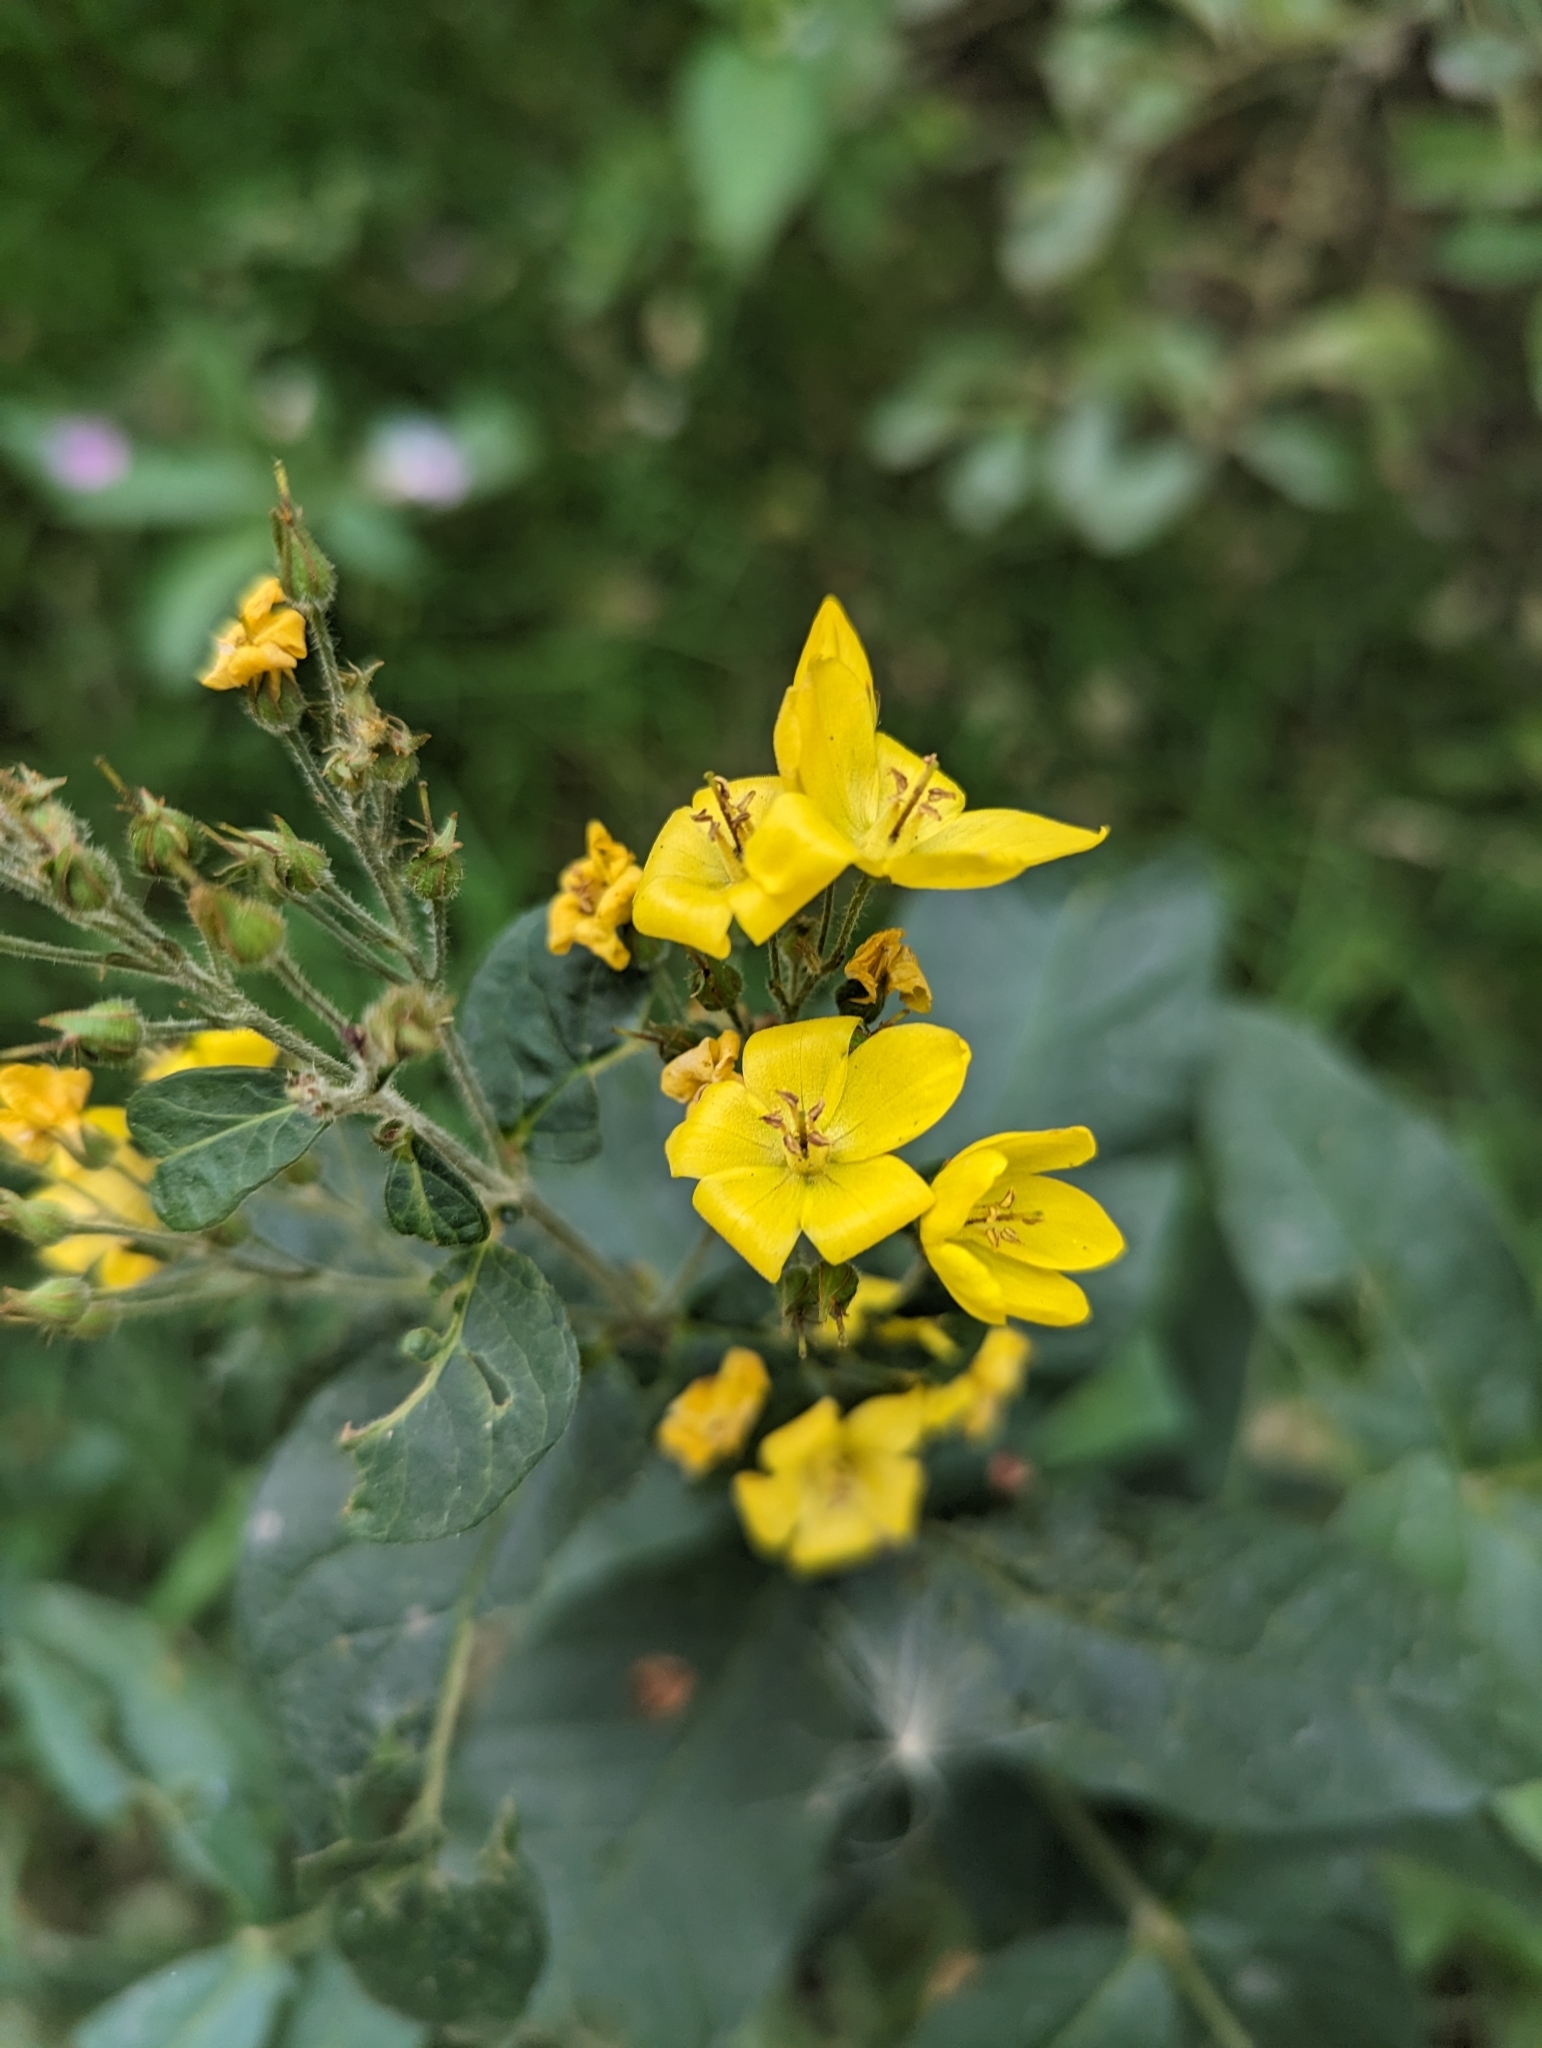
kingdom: Plantae
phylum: Tracheophyta
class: Magnoliopsida
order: Ericales
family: Primulaceae
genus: Lysimachia
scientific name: Lysimachia vulgaris
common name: Yellow loosestrife
